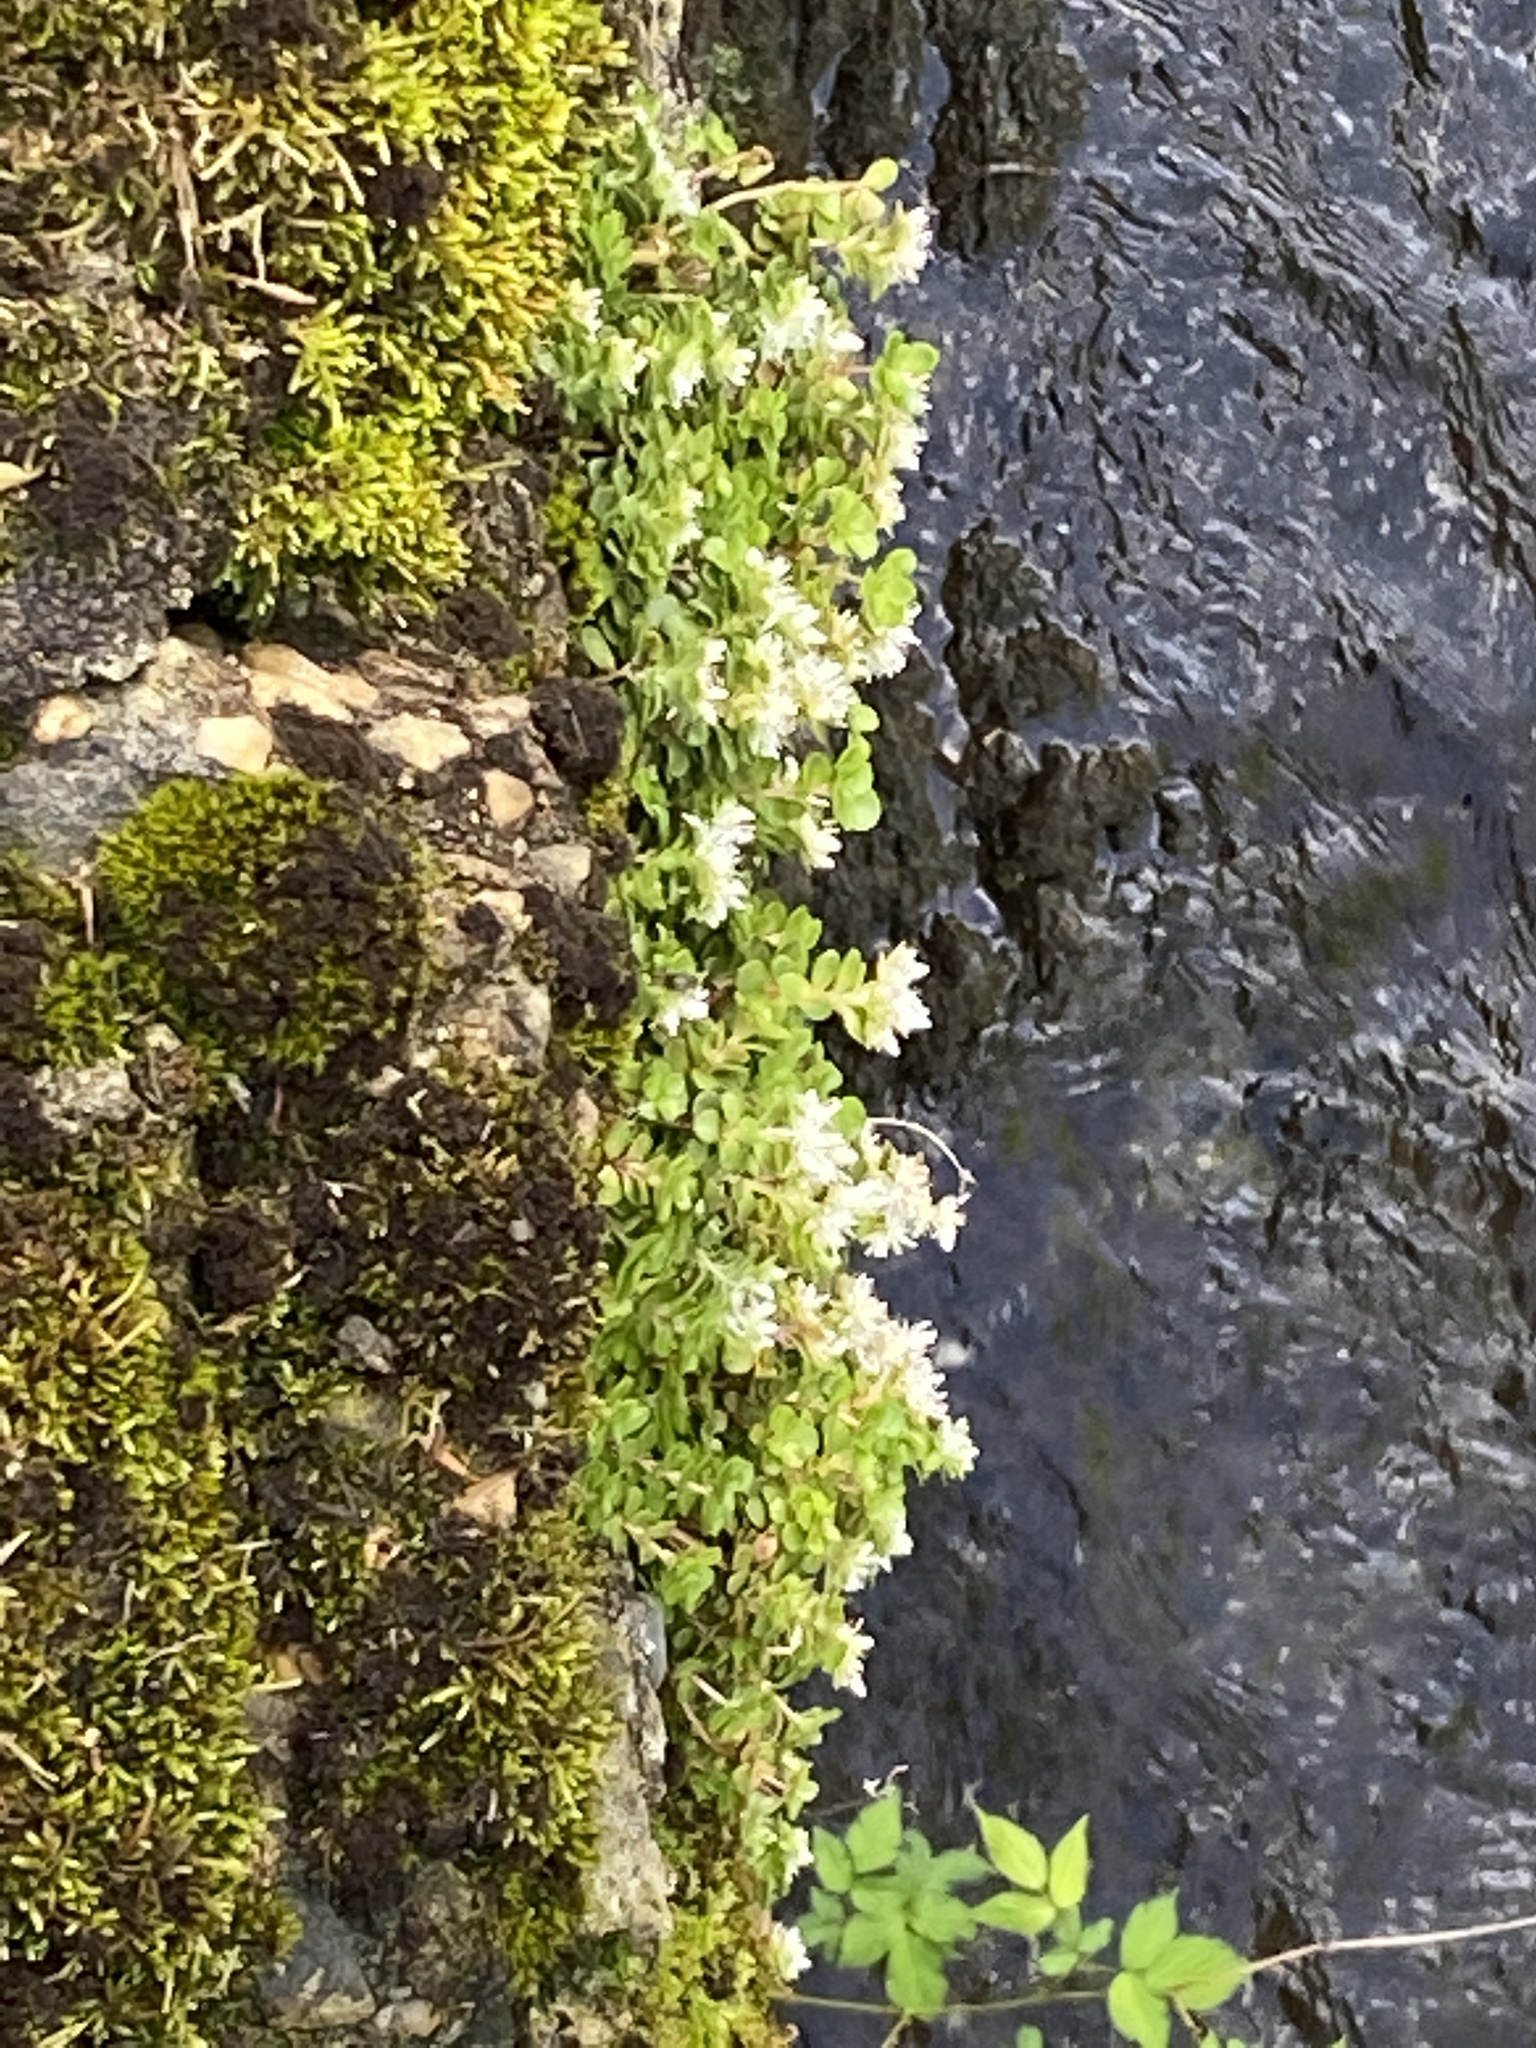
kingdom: Plantae
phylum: Tracheophyta
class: Magnoliopsida
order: Saxifragales
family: Crassulaceae
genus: Sedum
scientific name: Sedum ternatum
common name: Wild stonecrop
